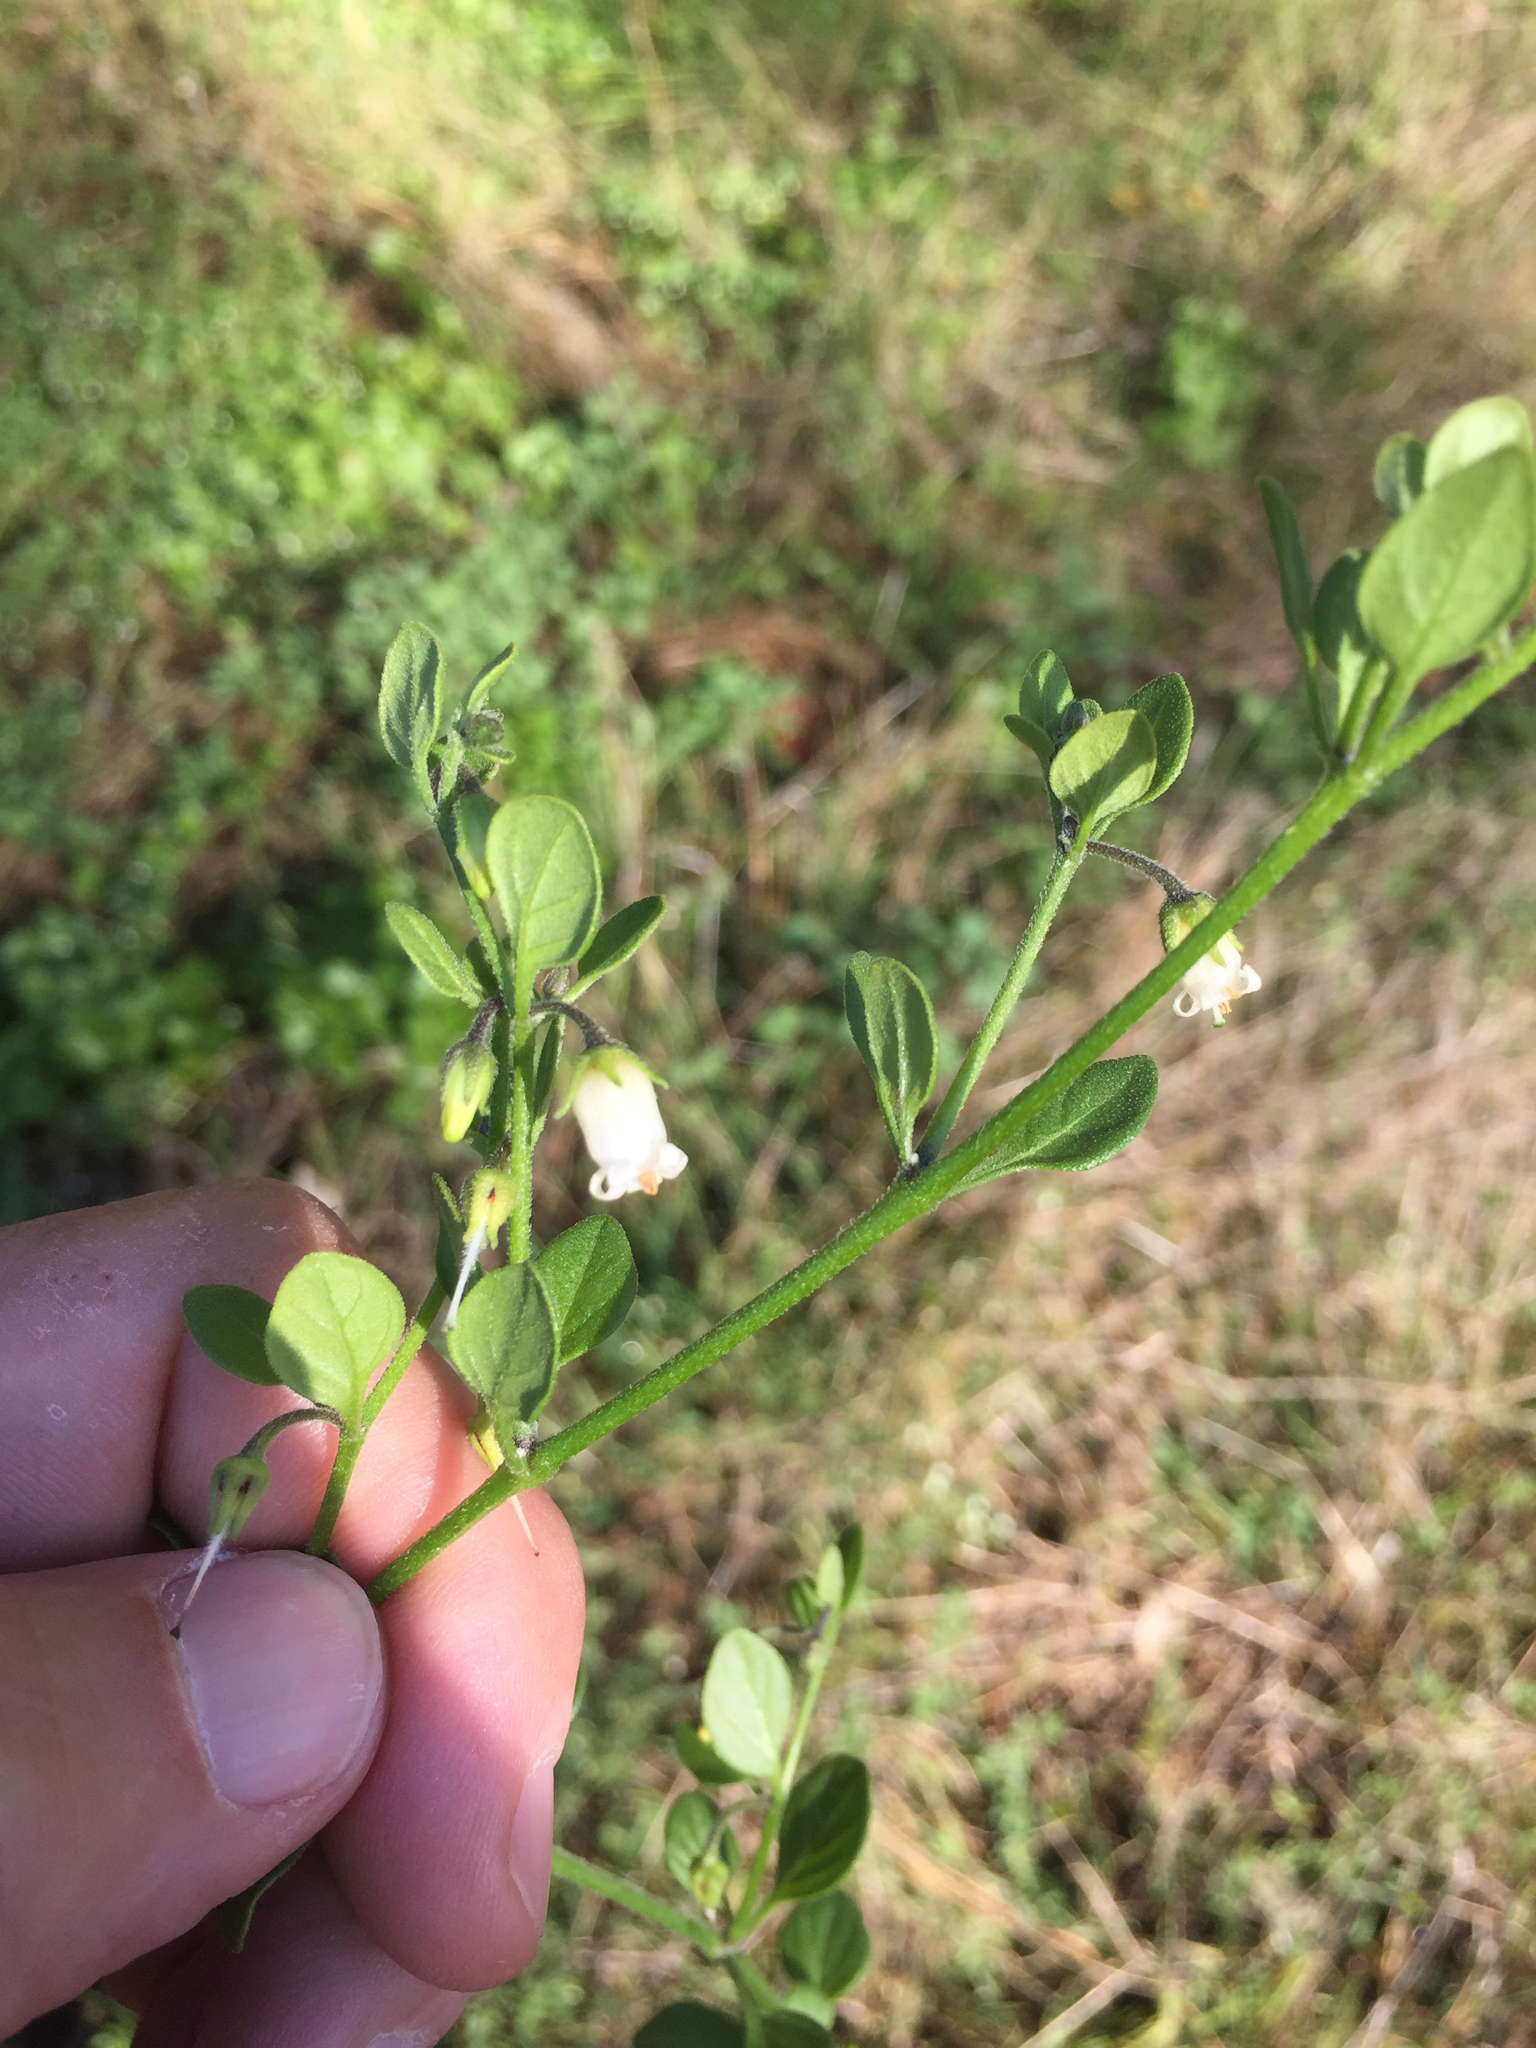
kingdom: Plantae
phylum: Tracheophyta
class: Magnoliopsida
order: Solanales
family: Solanaceae
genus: Salpichroa
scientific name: Salpichroa origanifolia
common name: Lily-of-the-valley-vine
